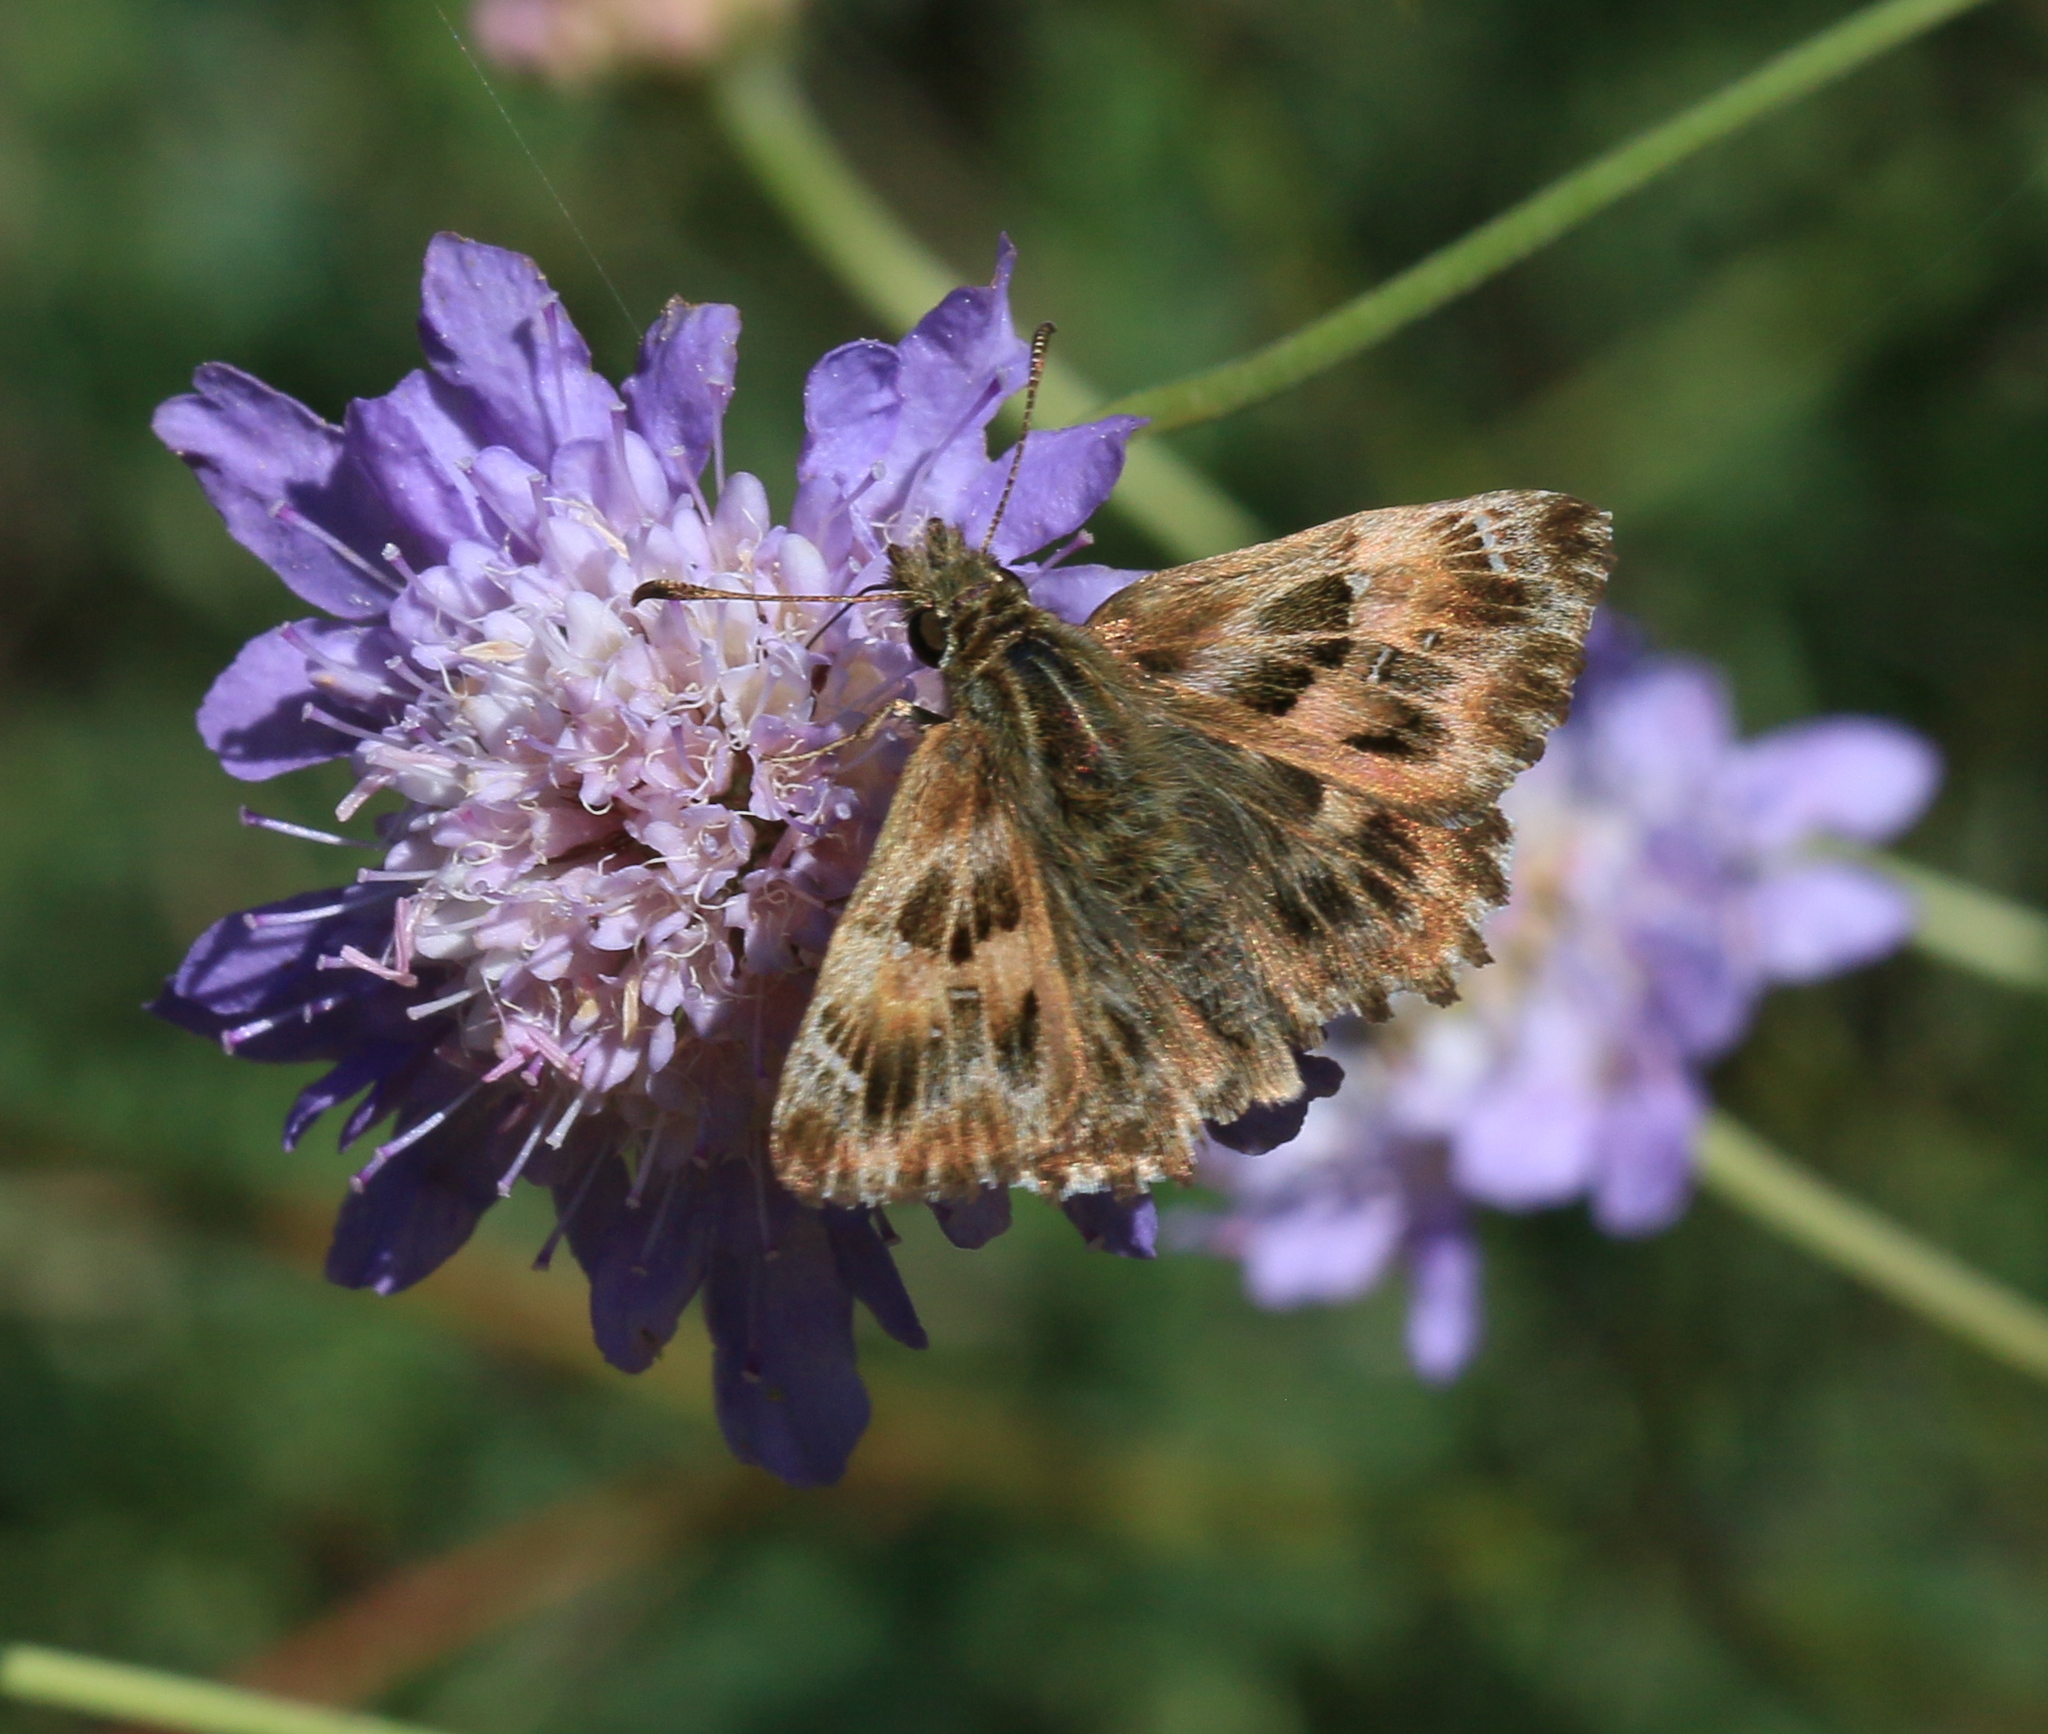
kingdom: Animalia
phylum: Arthropoda
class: Insecta
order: Lepidoptera
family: Hesperiidae
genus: Carcharodus
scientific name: Carcharodus alceae
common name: Mallow skipper
